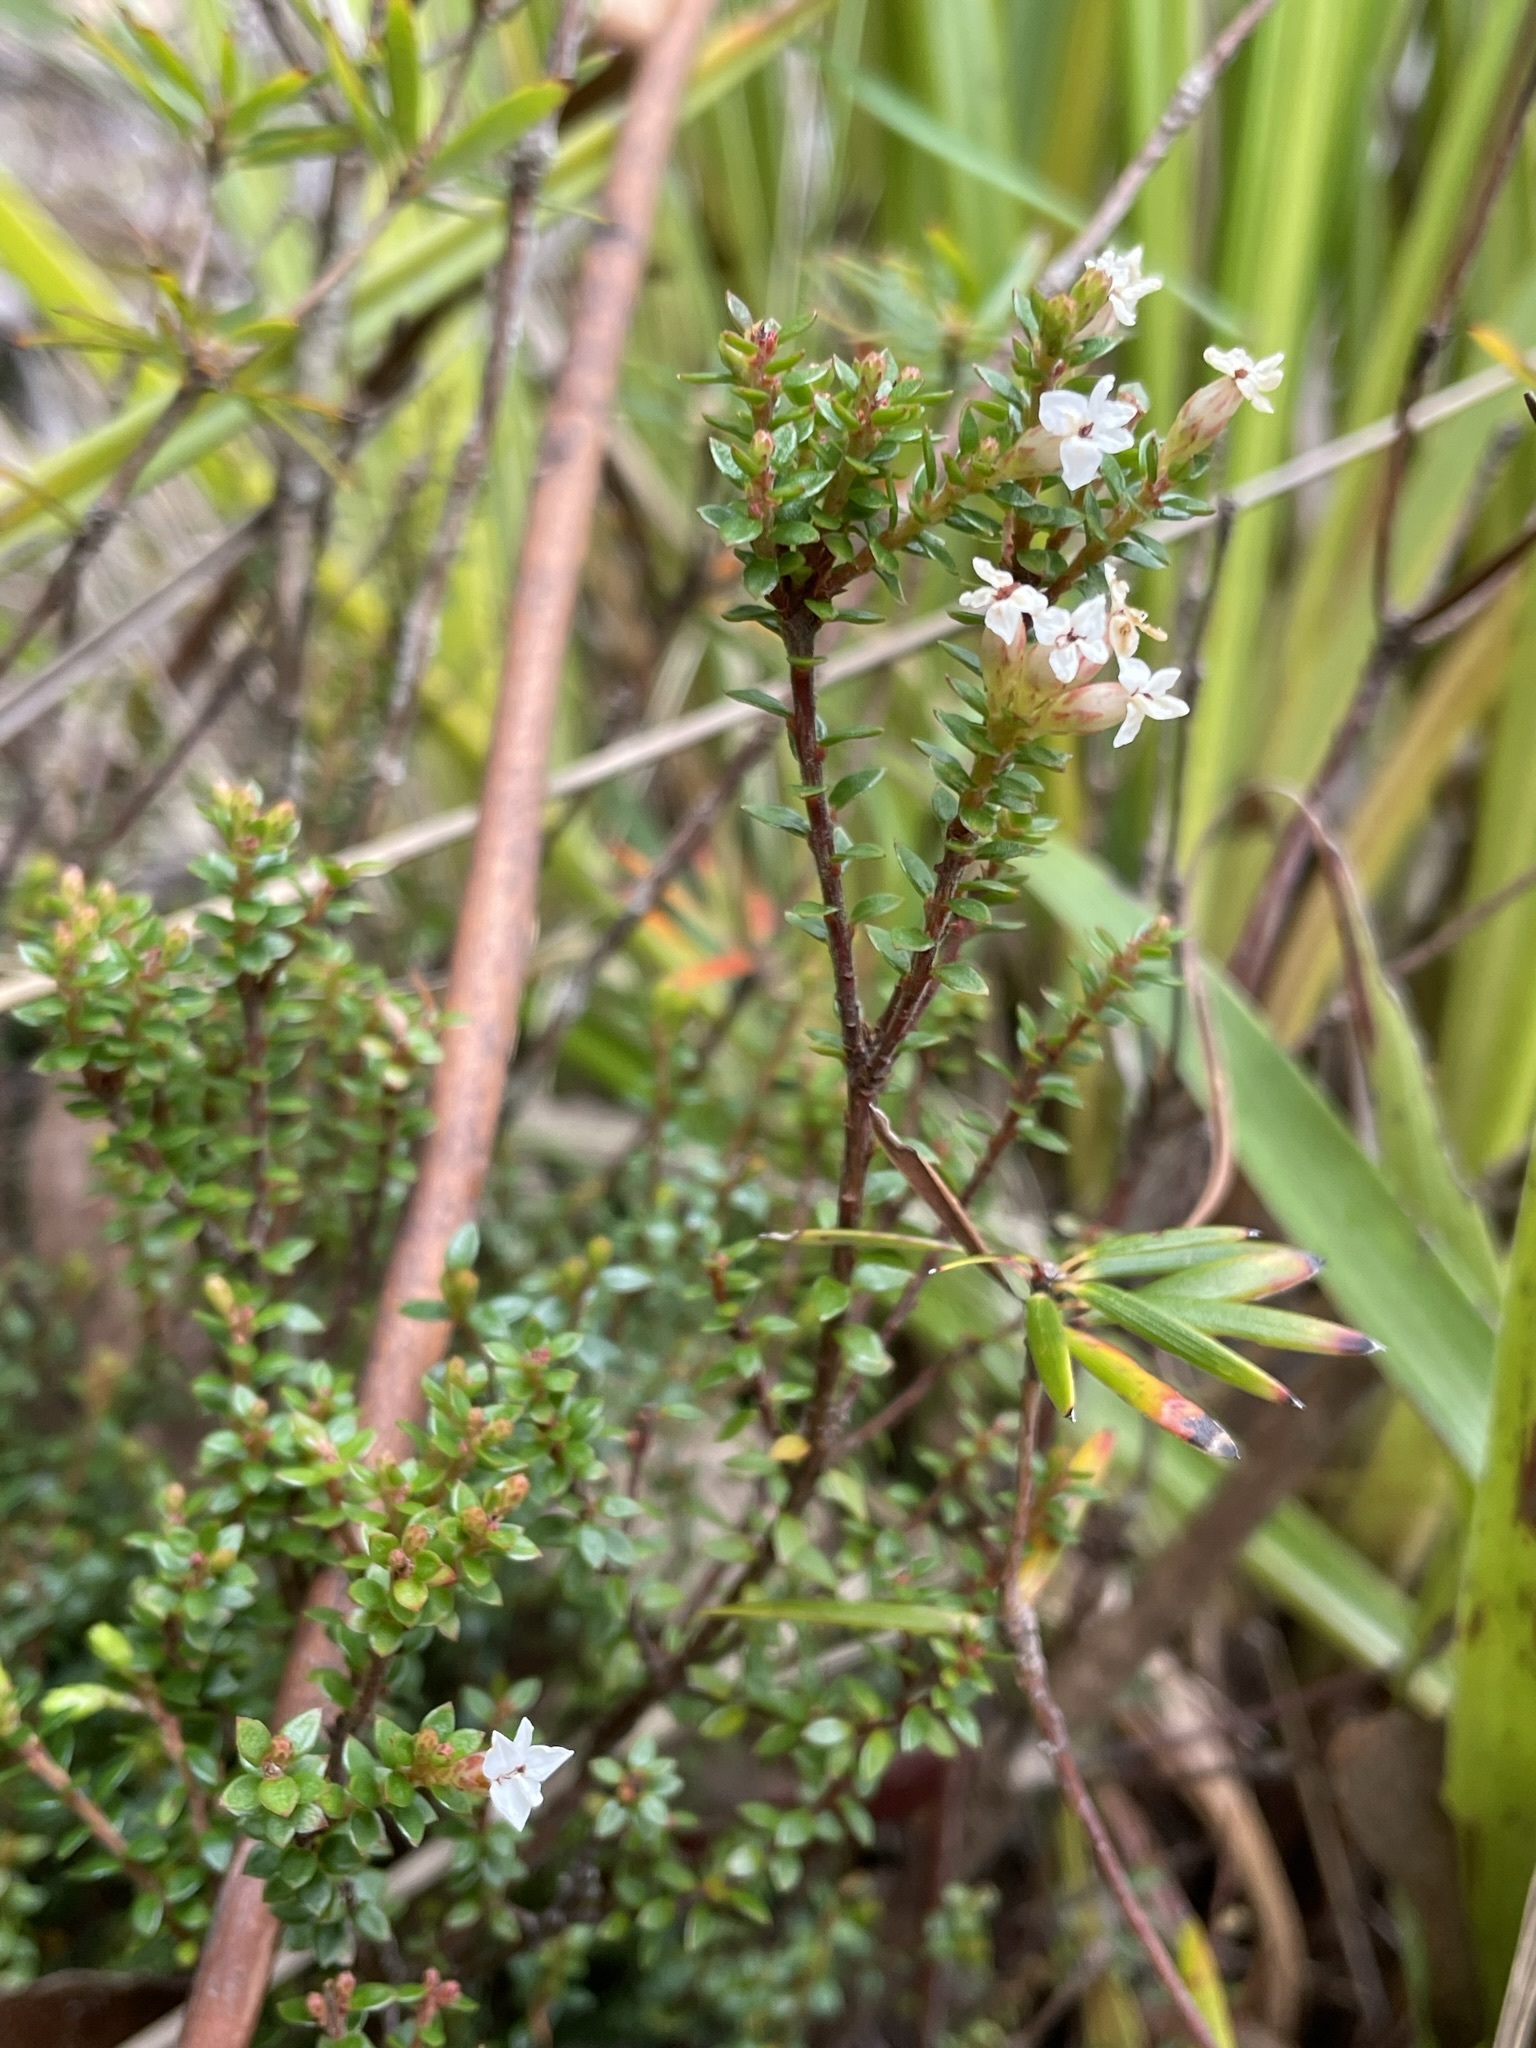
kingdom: Plantae
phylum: Tracheophyta
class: Magnoliopsida
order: Ericales
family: Ericaceae
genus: Epacris
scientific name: Epacris serpyllifolia
